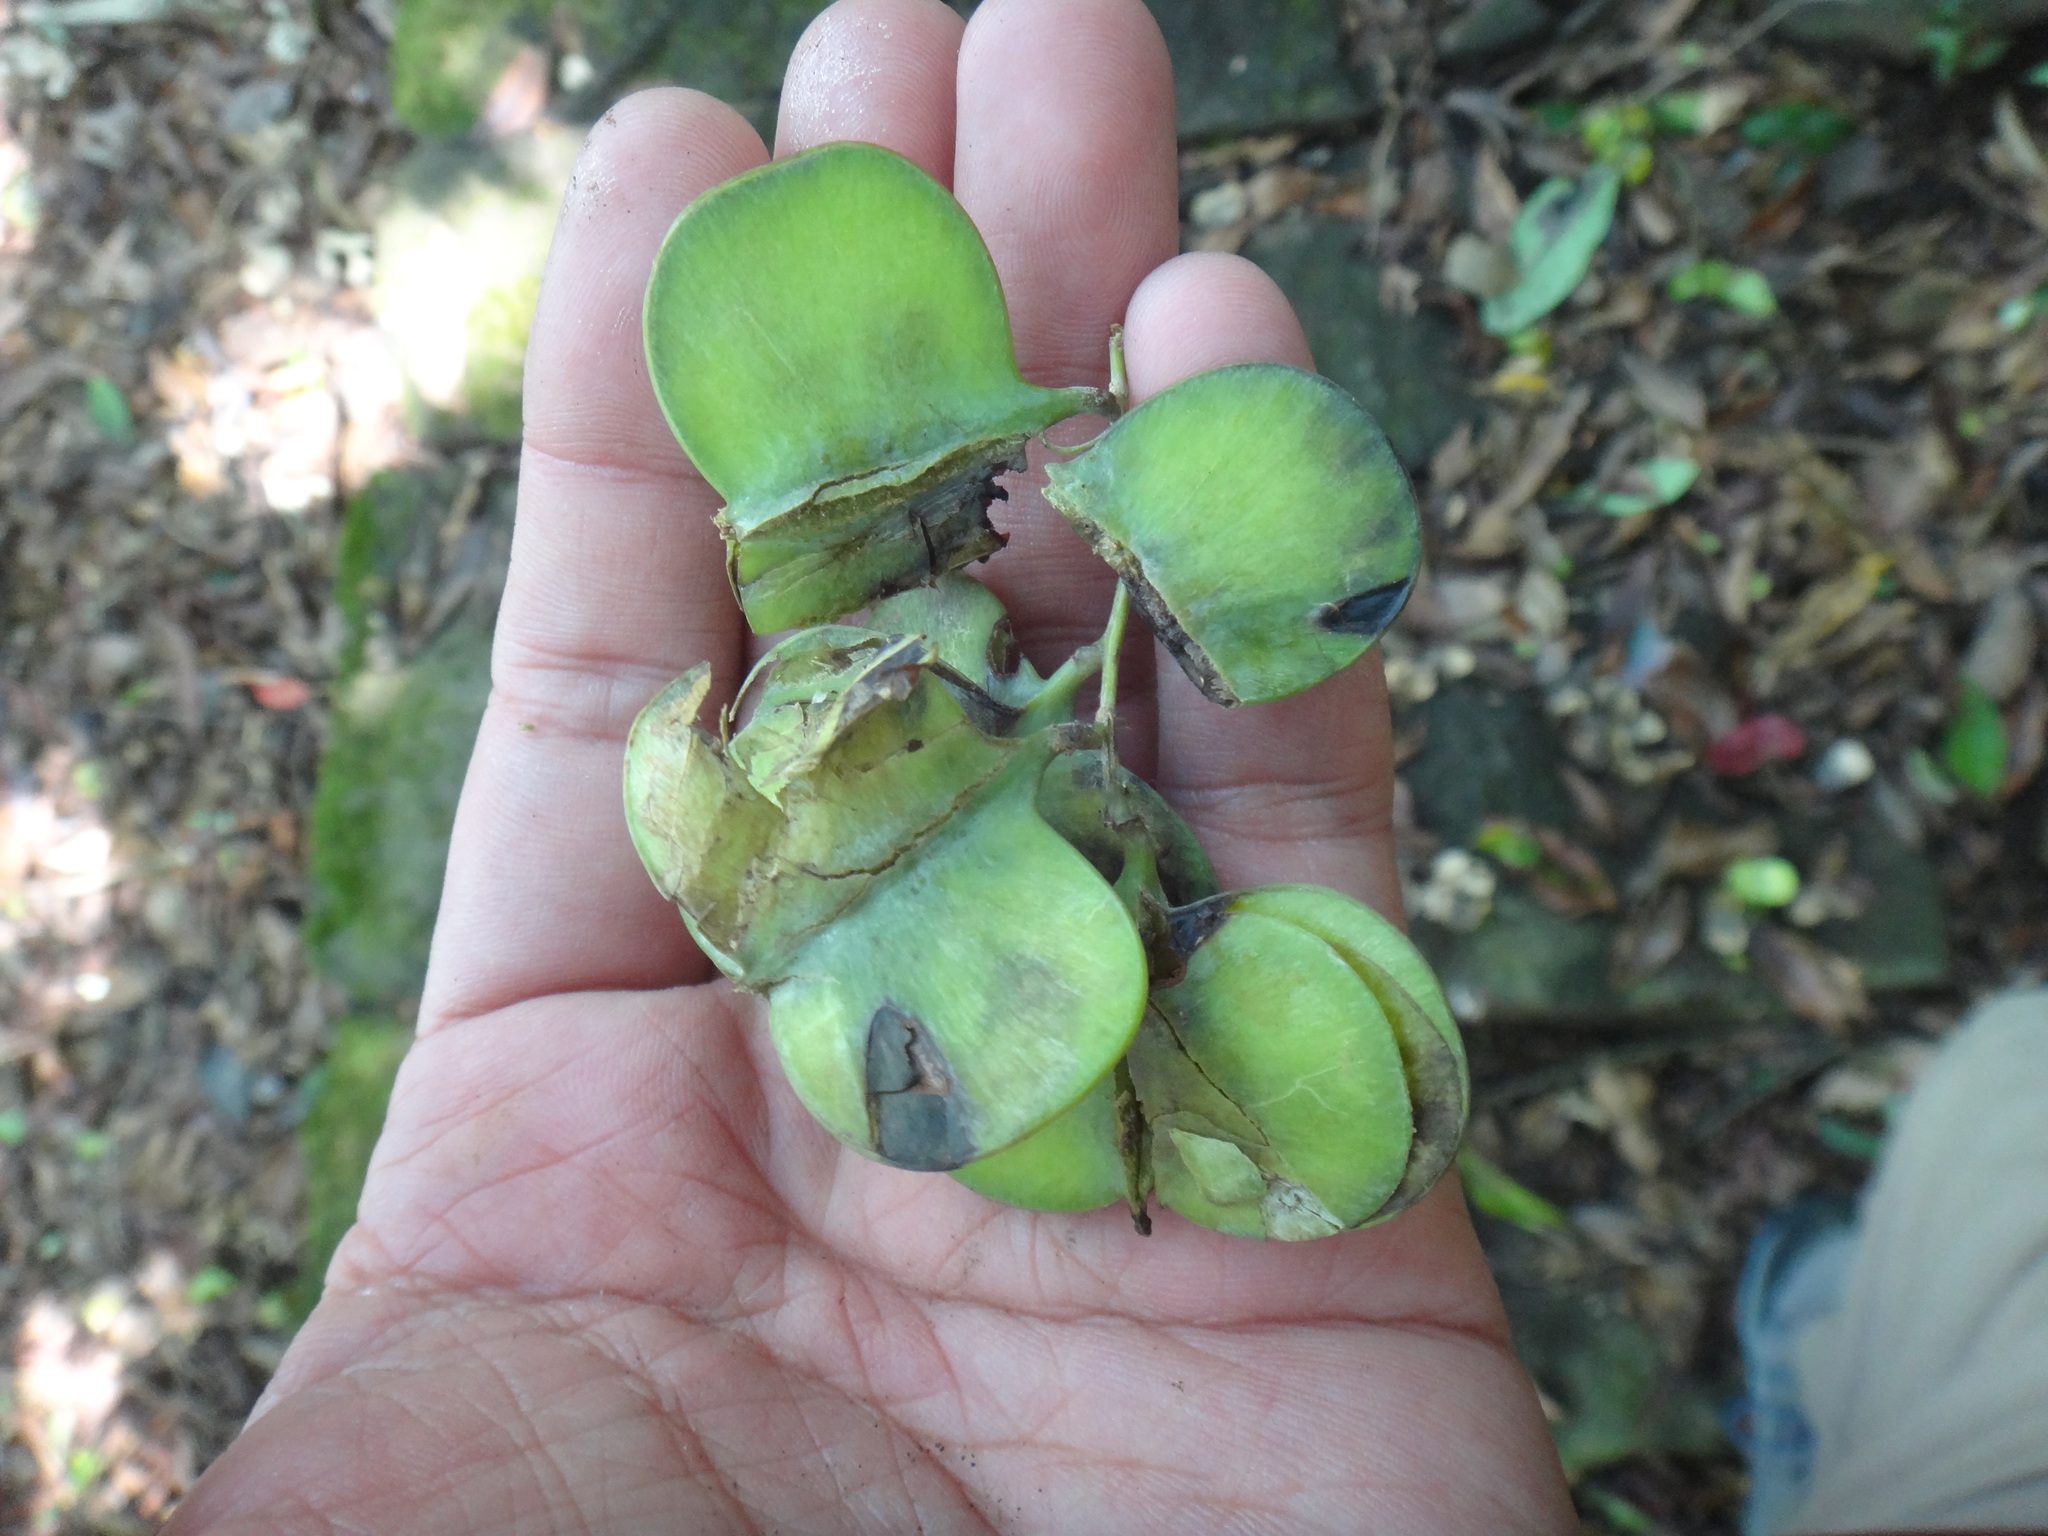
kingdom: Plantae
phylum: Tracheophyta
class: Liliopsida
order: Dioscoreales
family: Dioscoreaceae
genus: Dioscorea
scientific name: Dioscorea cirrhosa
